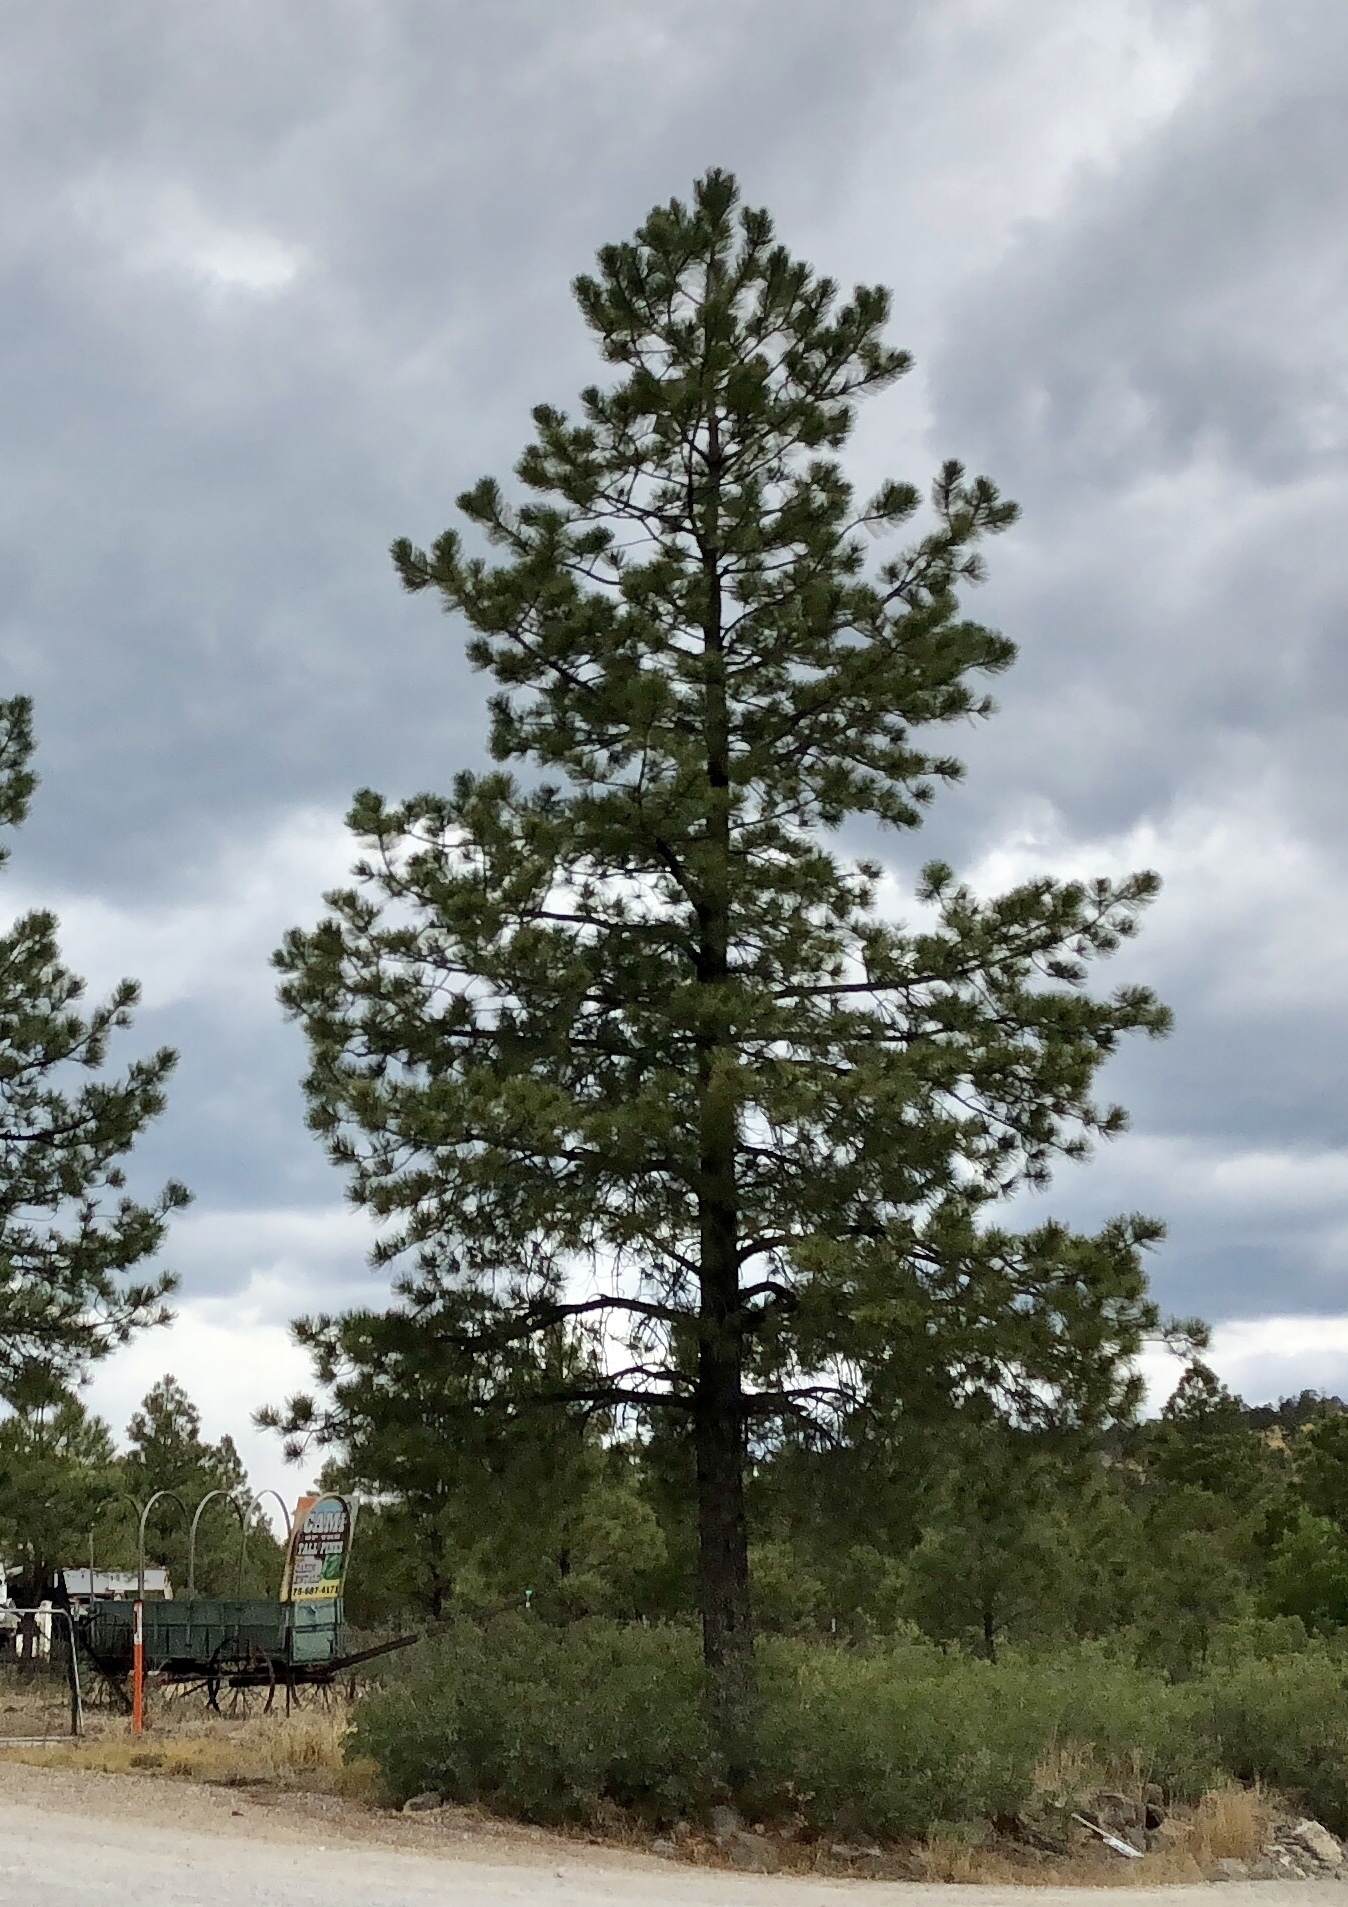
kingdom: Plantae
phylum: Tracheophyta
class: Pinopsida
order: Pinales
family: Pinaceae
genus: Pinus
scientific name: Pinus ponderosa
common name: Western yellow-pine
